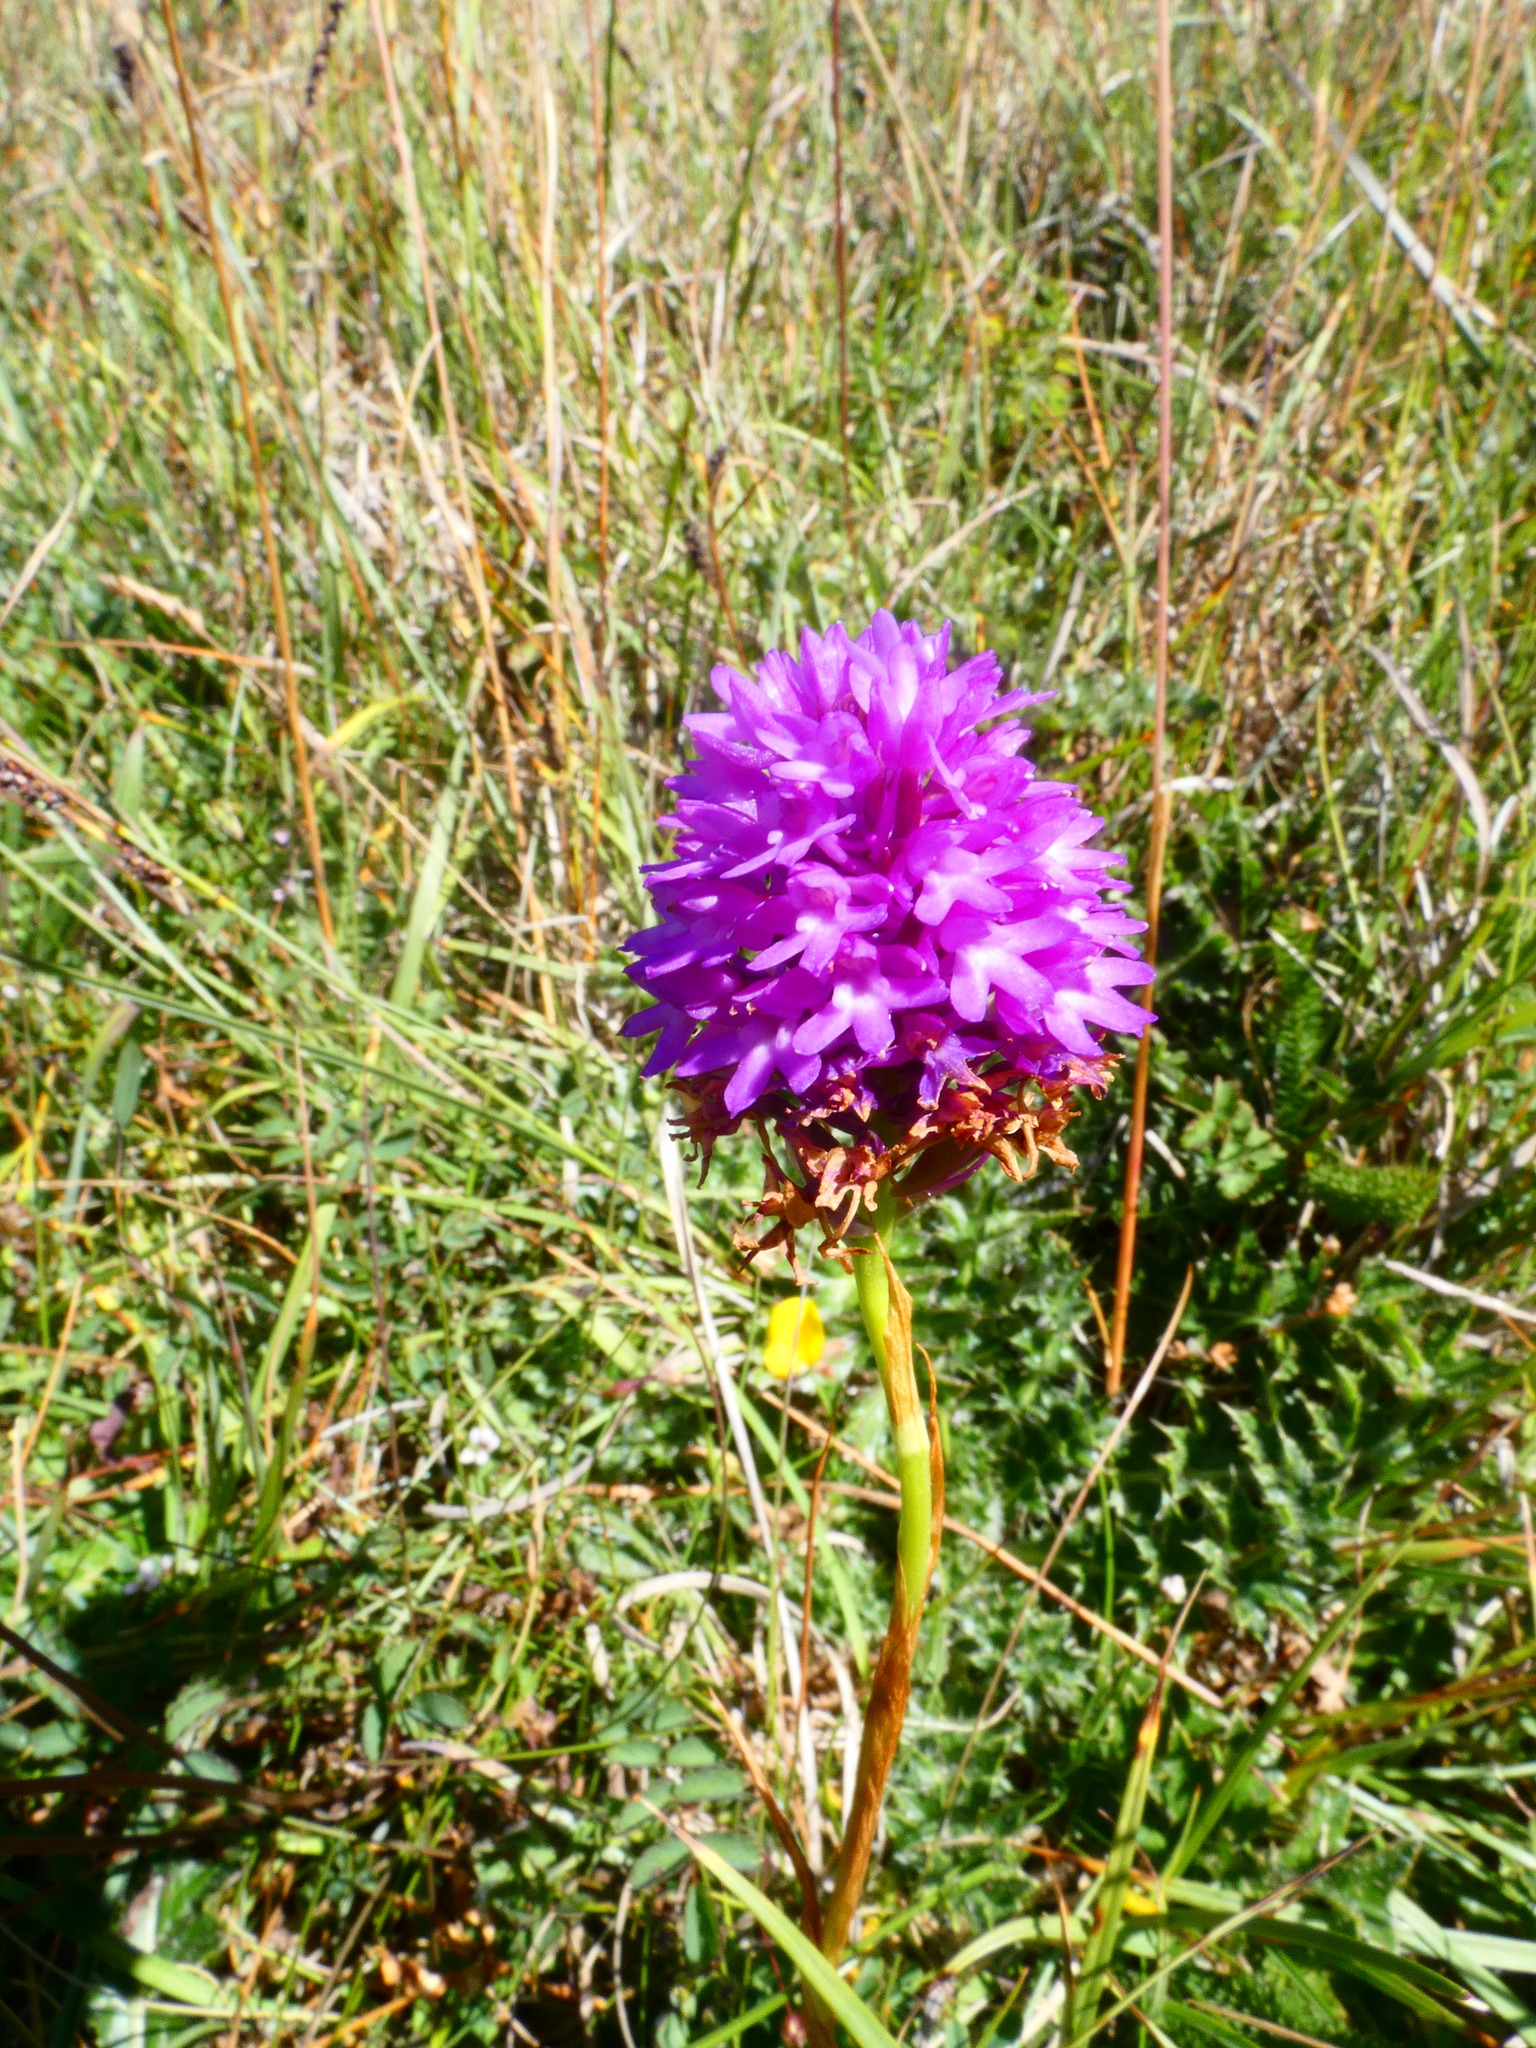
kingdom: Plantae
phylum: Tracheophyta
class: Liliopsida
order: Asparagales
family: Orchidaceae
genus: Anacamptis
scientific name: Anacamptis pyramidalis
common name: Pyramidal orchid
